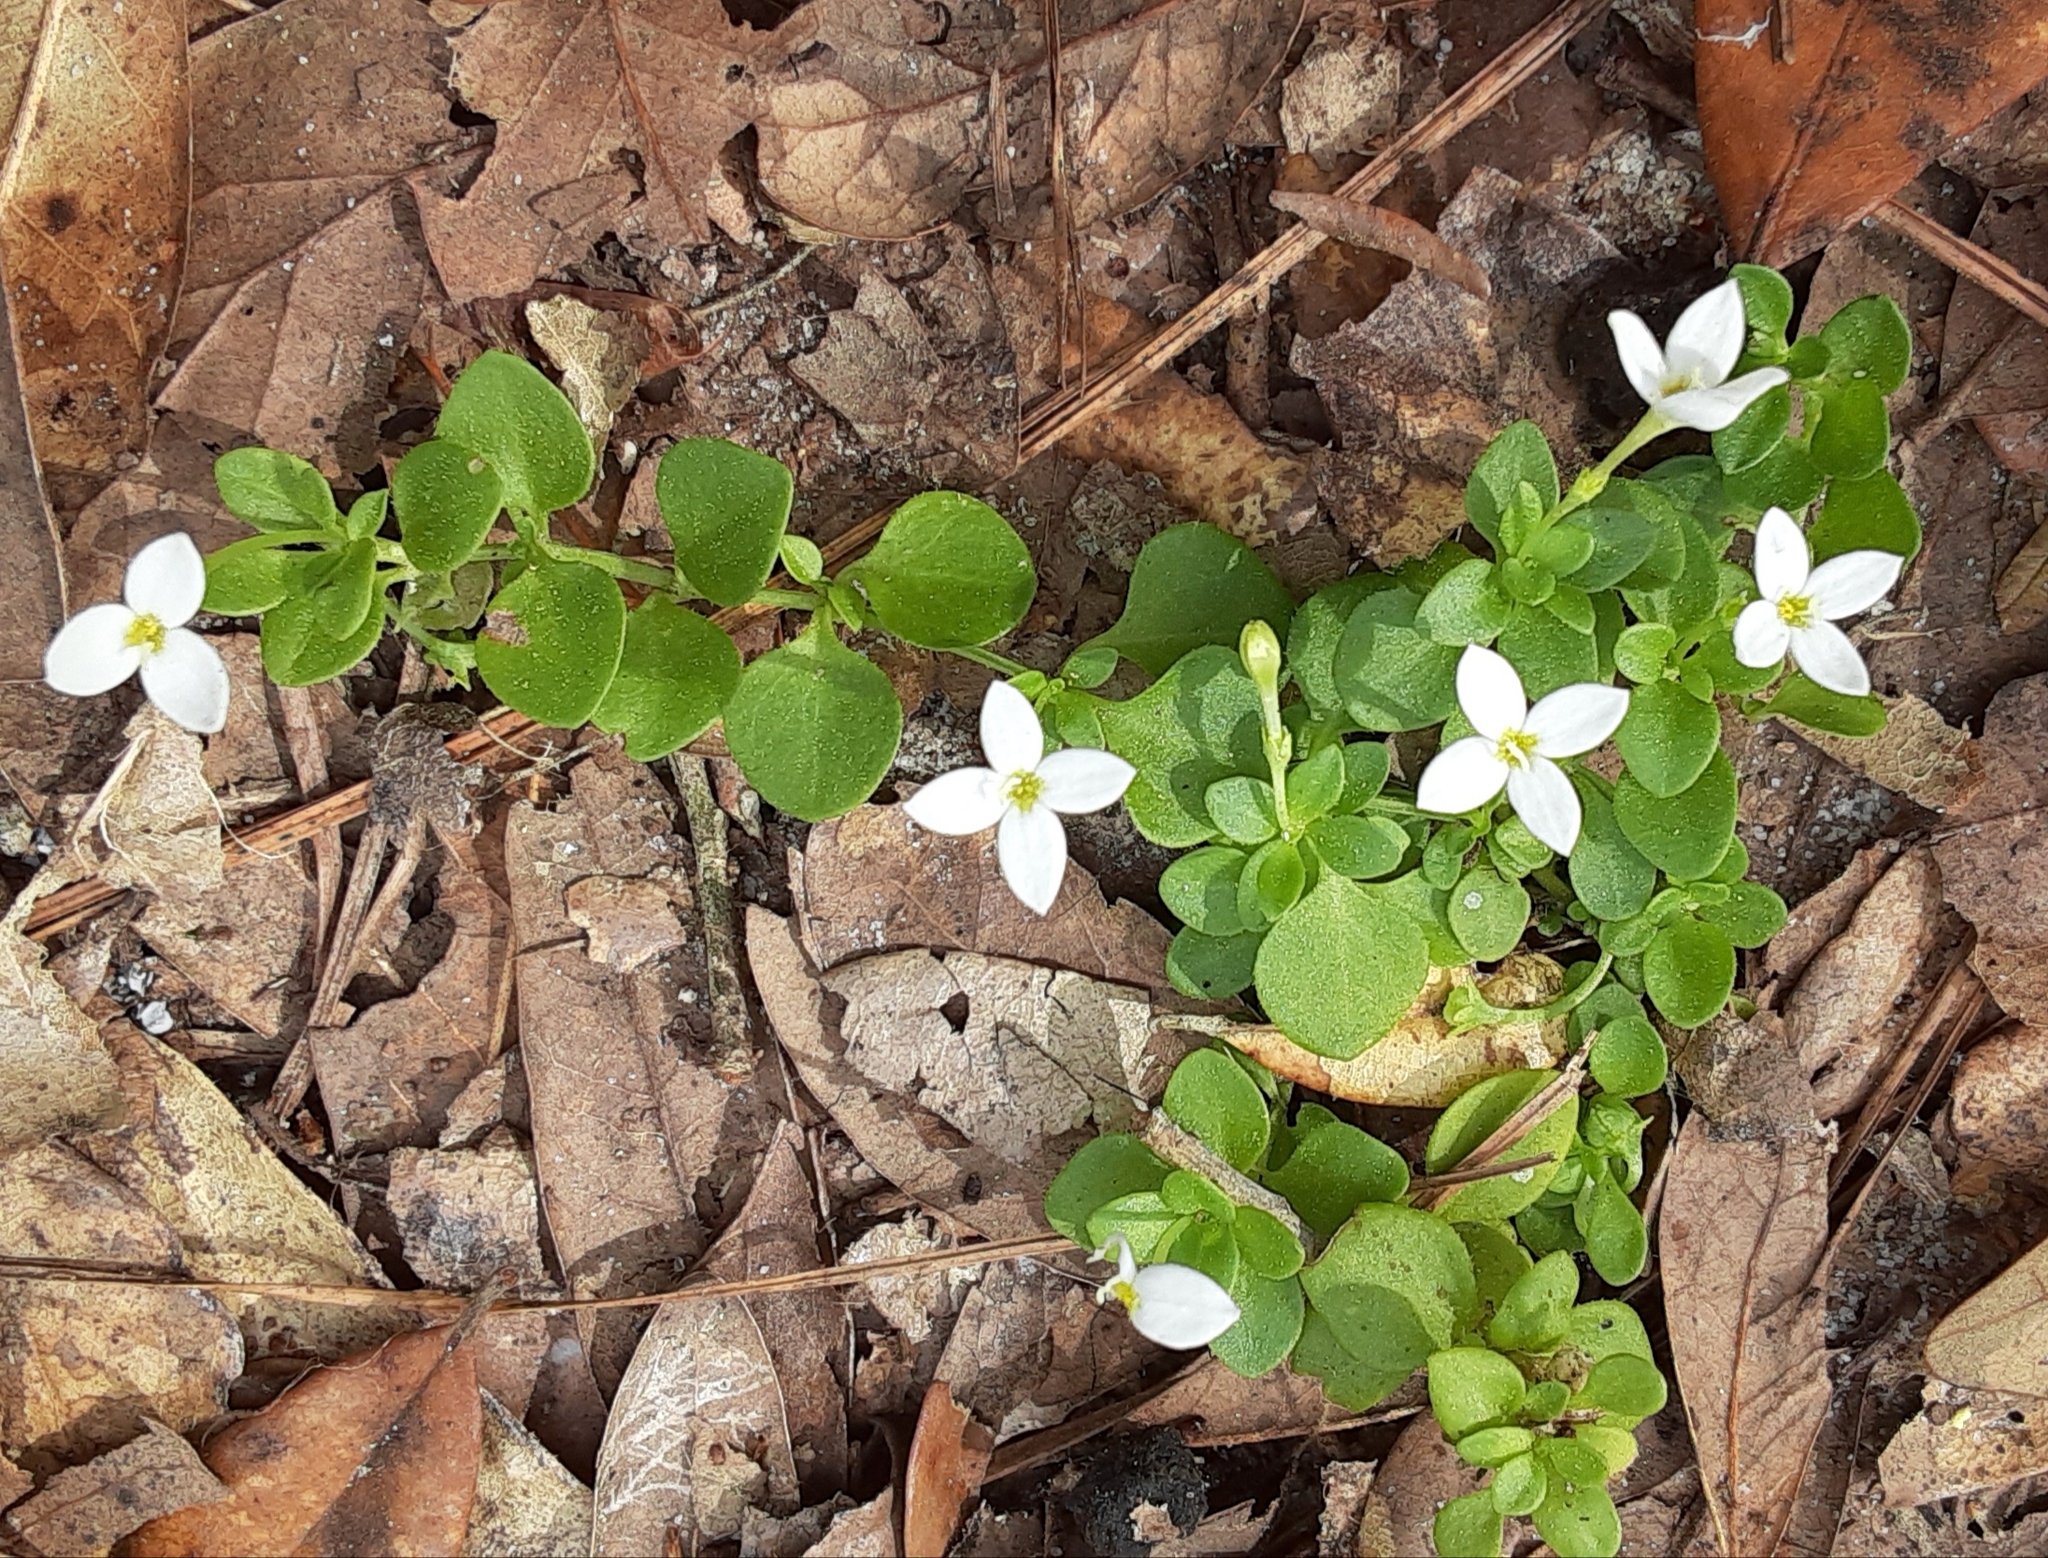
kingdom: Plantae
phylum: Tracheophyta
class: Magnoliopsida
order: Gentianales
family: Rubiaceae
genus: Houstonia
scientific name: Houstonia procumbens
